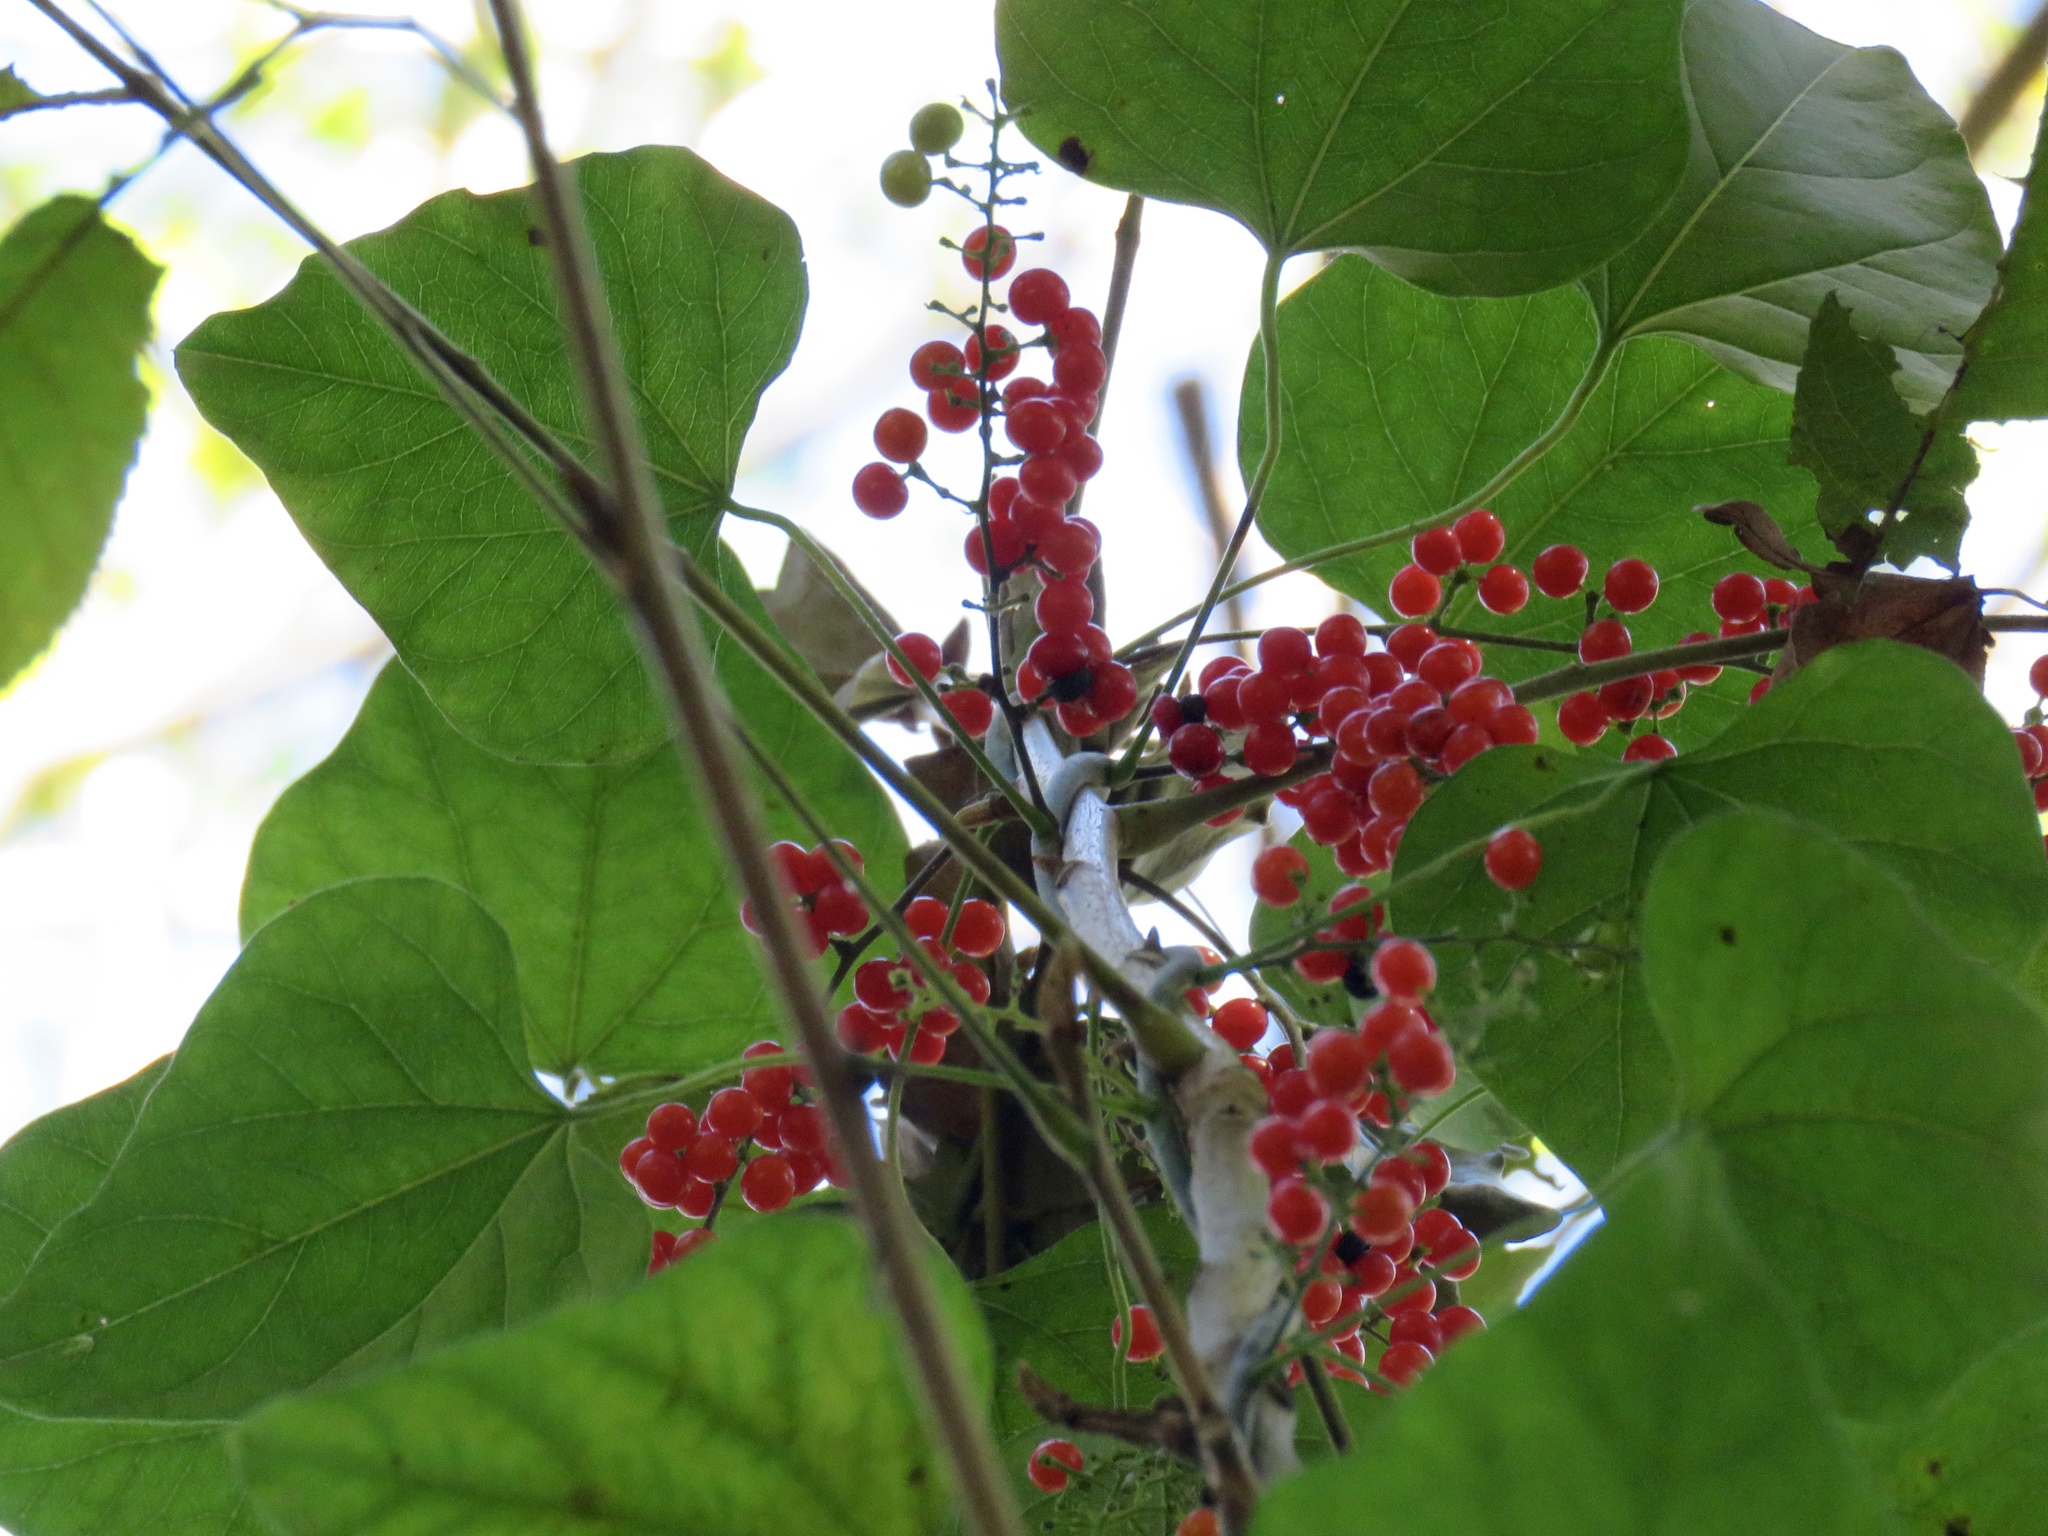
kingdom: Plantae
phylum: Tracheophyta
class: Magnoliopsida
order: Ranunculales
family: Menispermaceae
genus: Cocculus
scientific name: Cocculus carolinus
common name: Carolina moonseed
